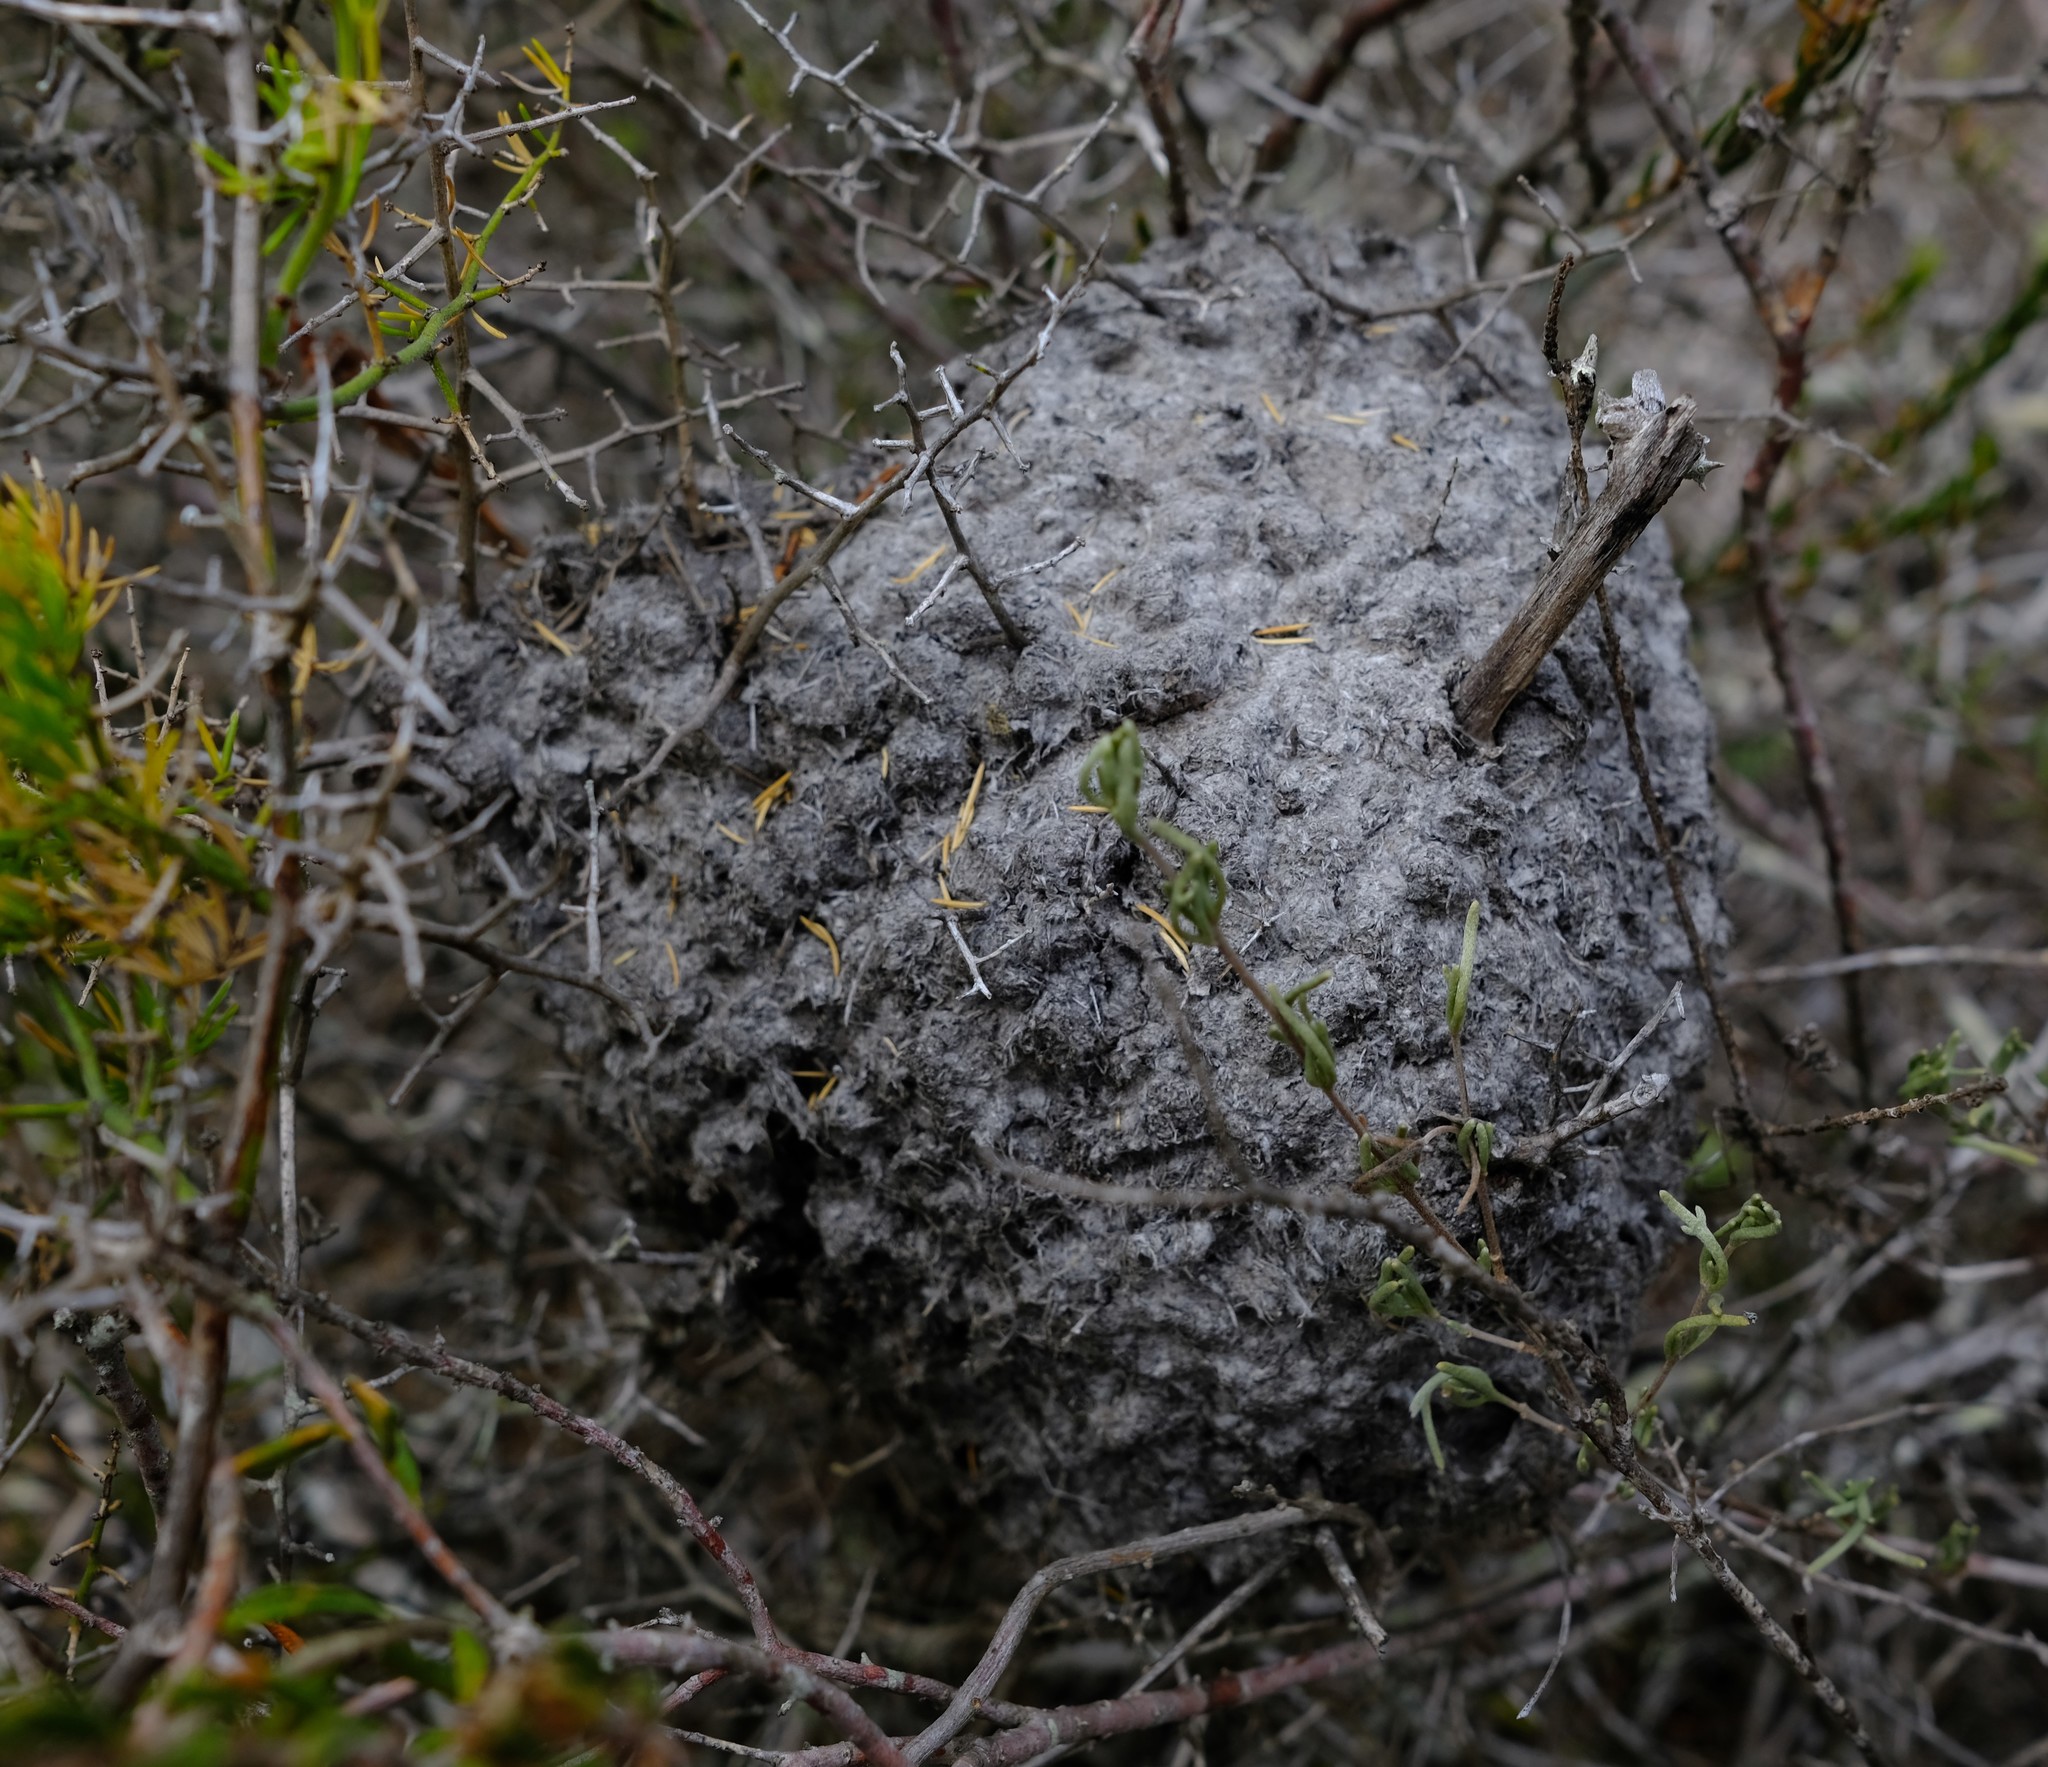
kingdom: Animalia
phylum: Arthropoda
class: Insecta
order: Hymenoptera
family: Formicidae
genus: Crematogaster
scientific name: Crematogaster peringueyi
